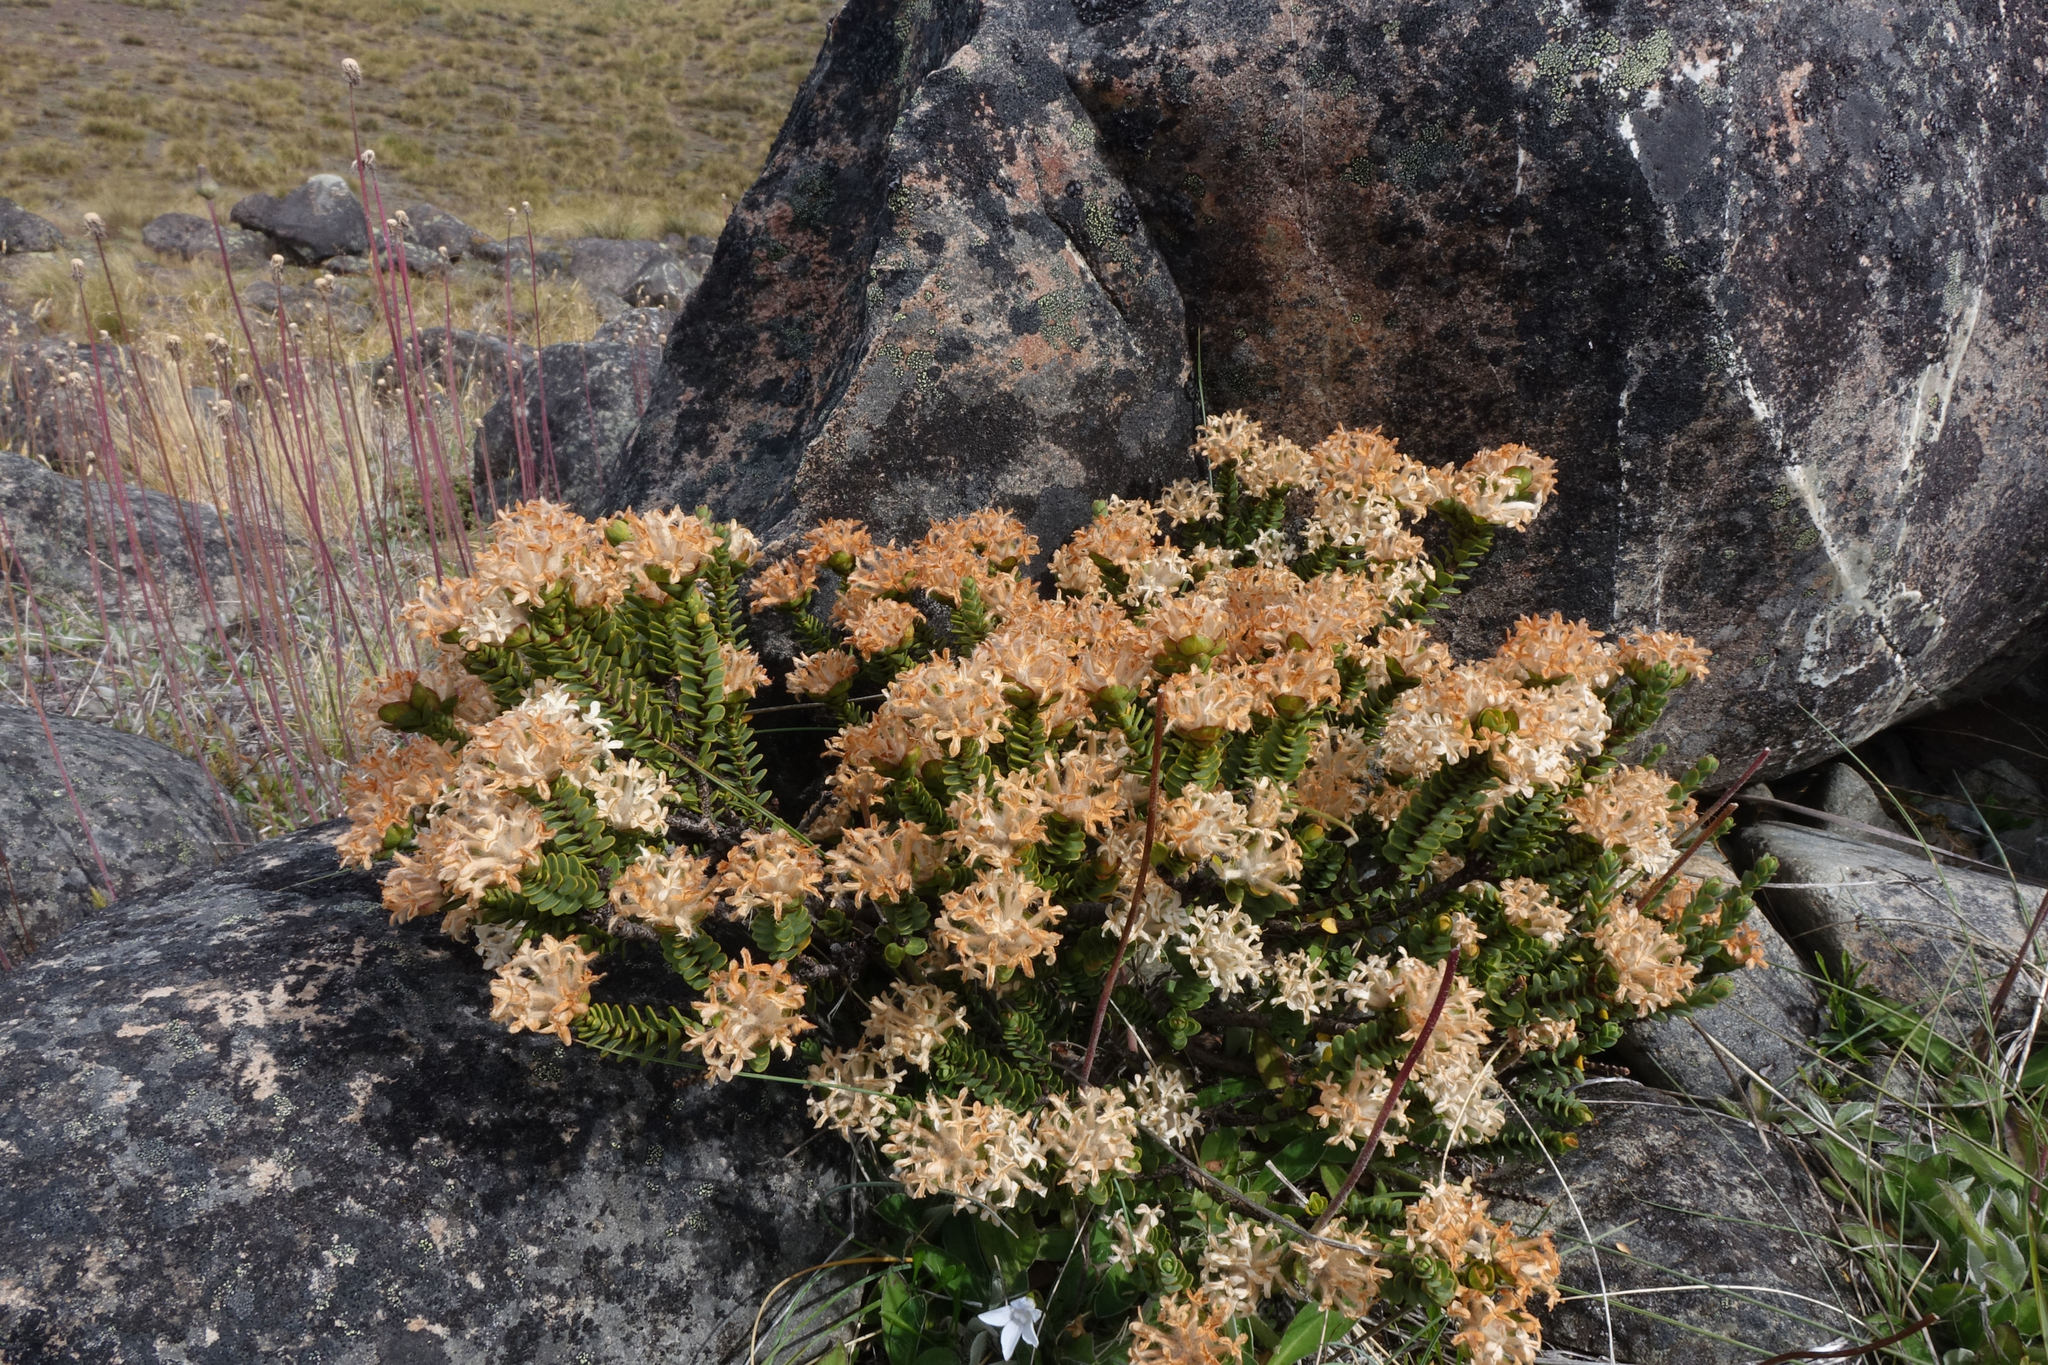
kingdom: Plantae
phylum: Tracheophyta
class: Magnoliopsida
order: Malvales
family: Thymelaeaceae
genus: Pimelea
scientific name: Pimelea traversii
